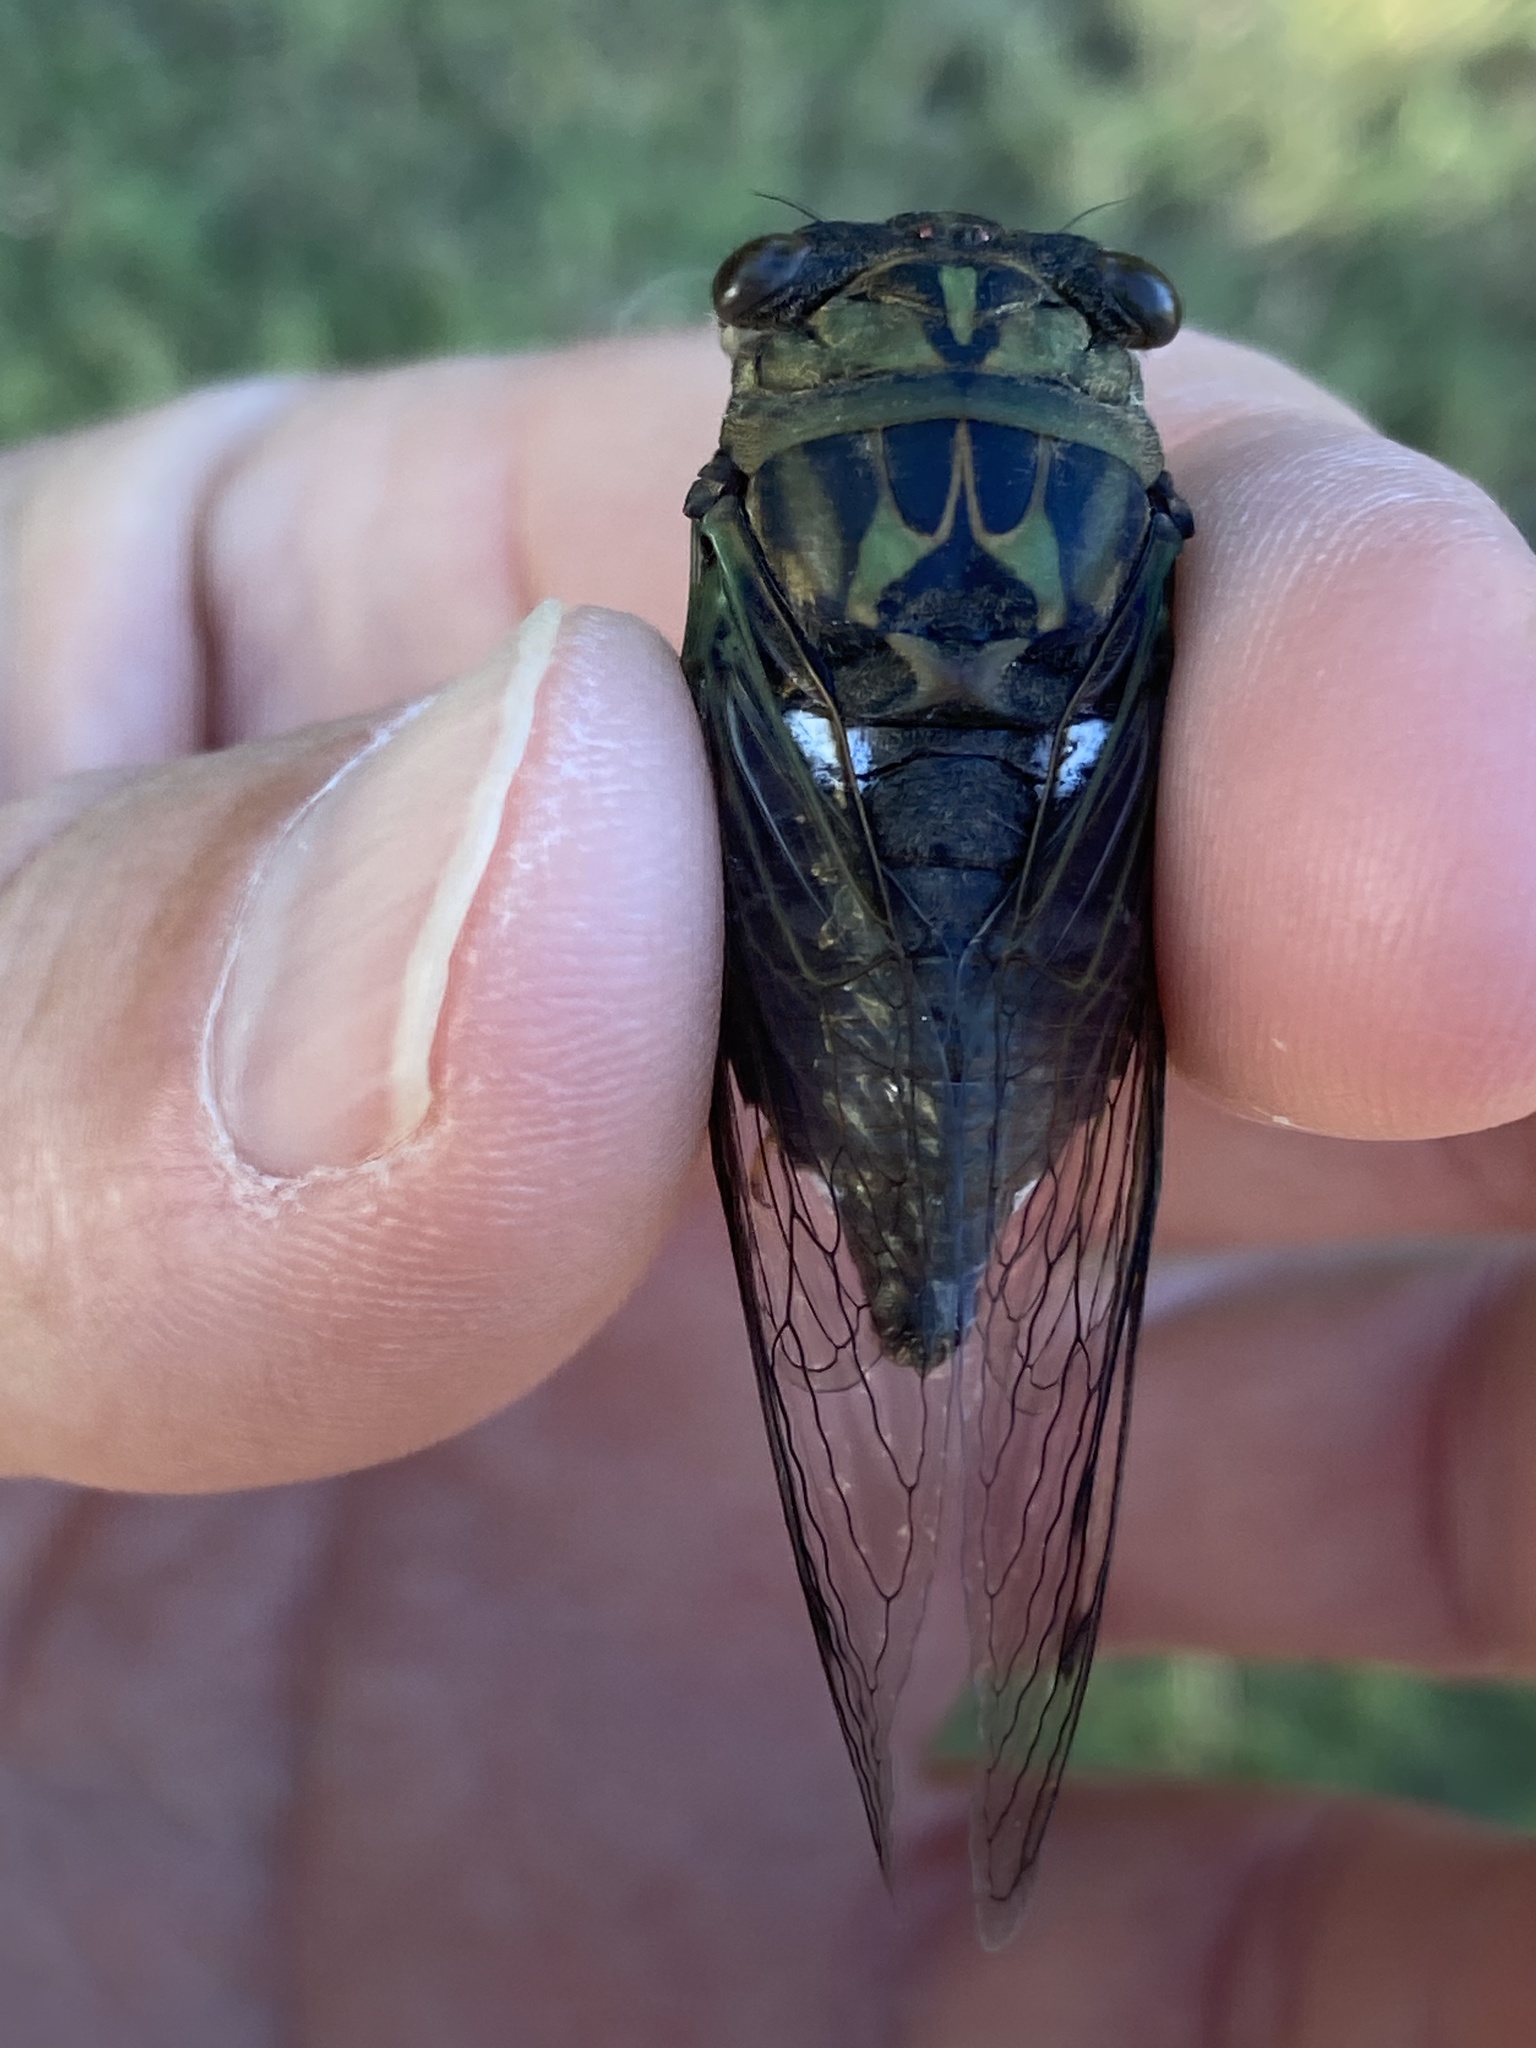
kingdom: Animalia
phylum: Arthropoda
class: Insecta
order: Hemiptera
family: Cicadidae
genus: Neotibicen
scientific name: Neotibicen pruinosus
